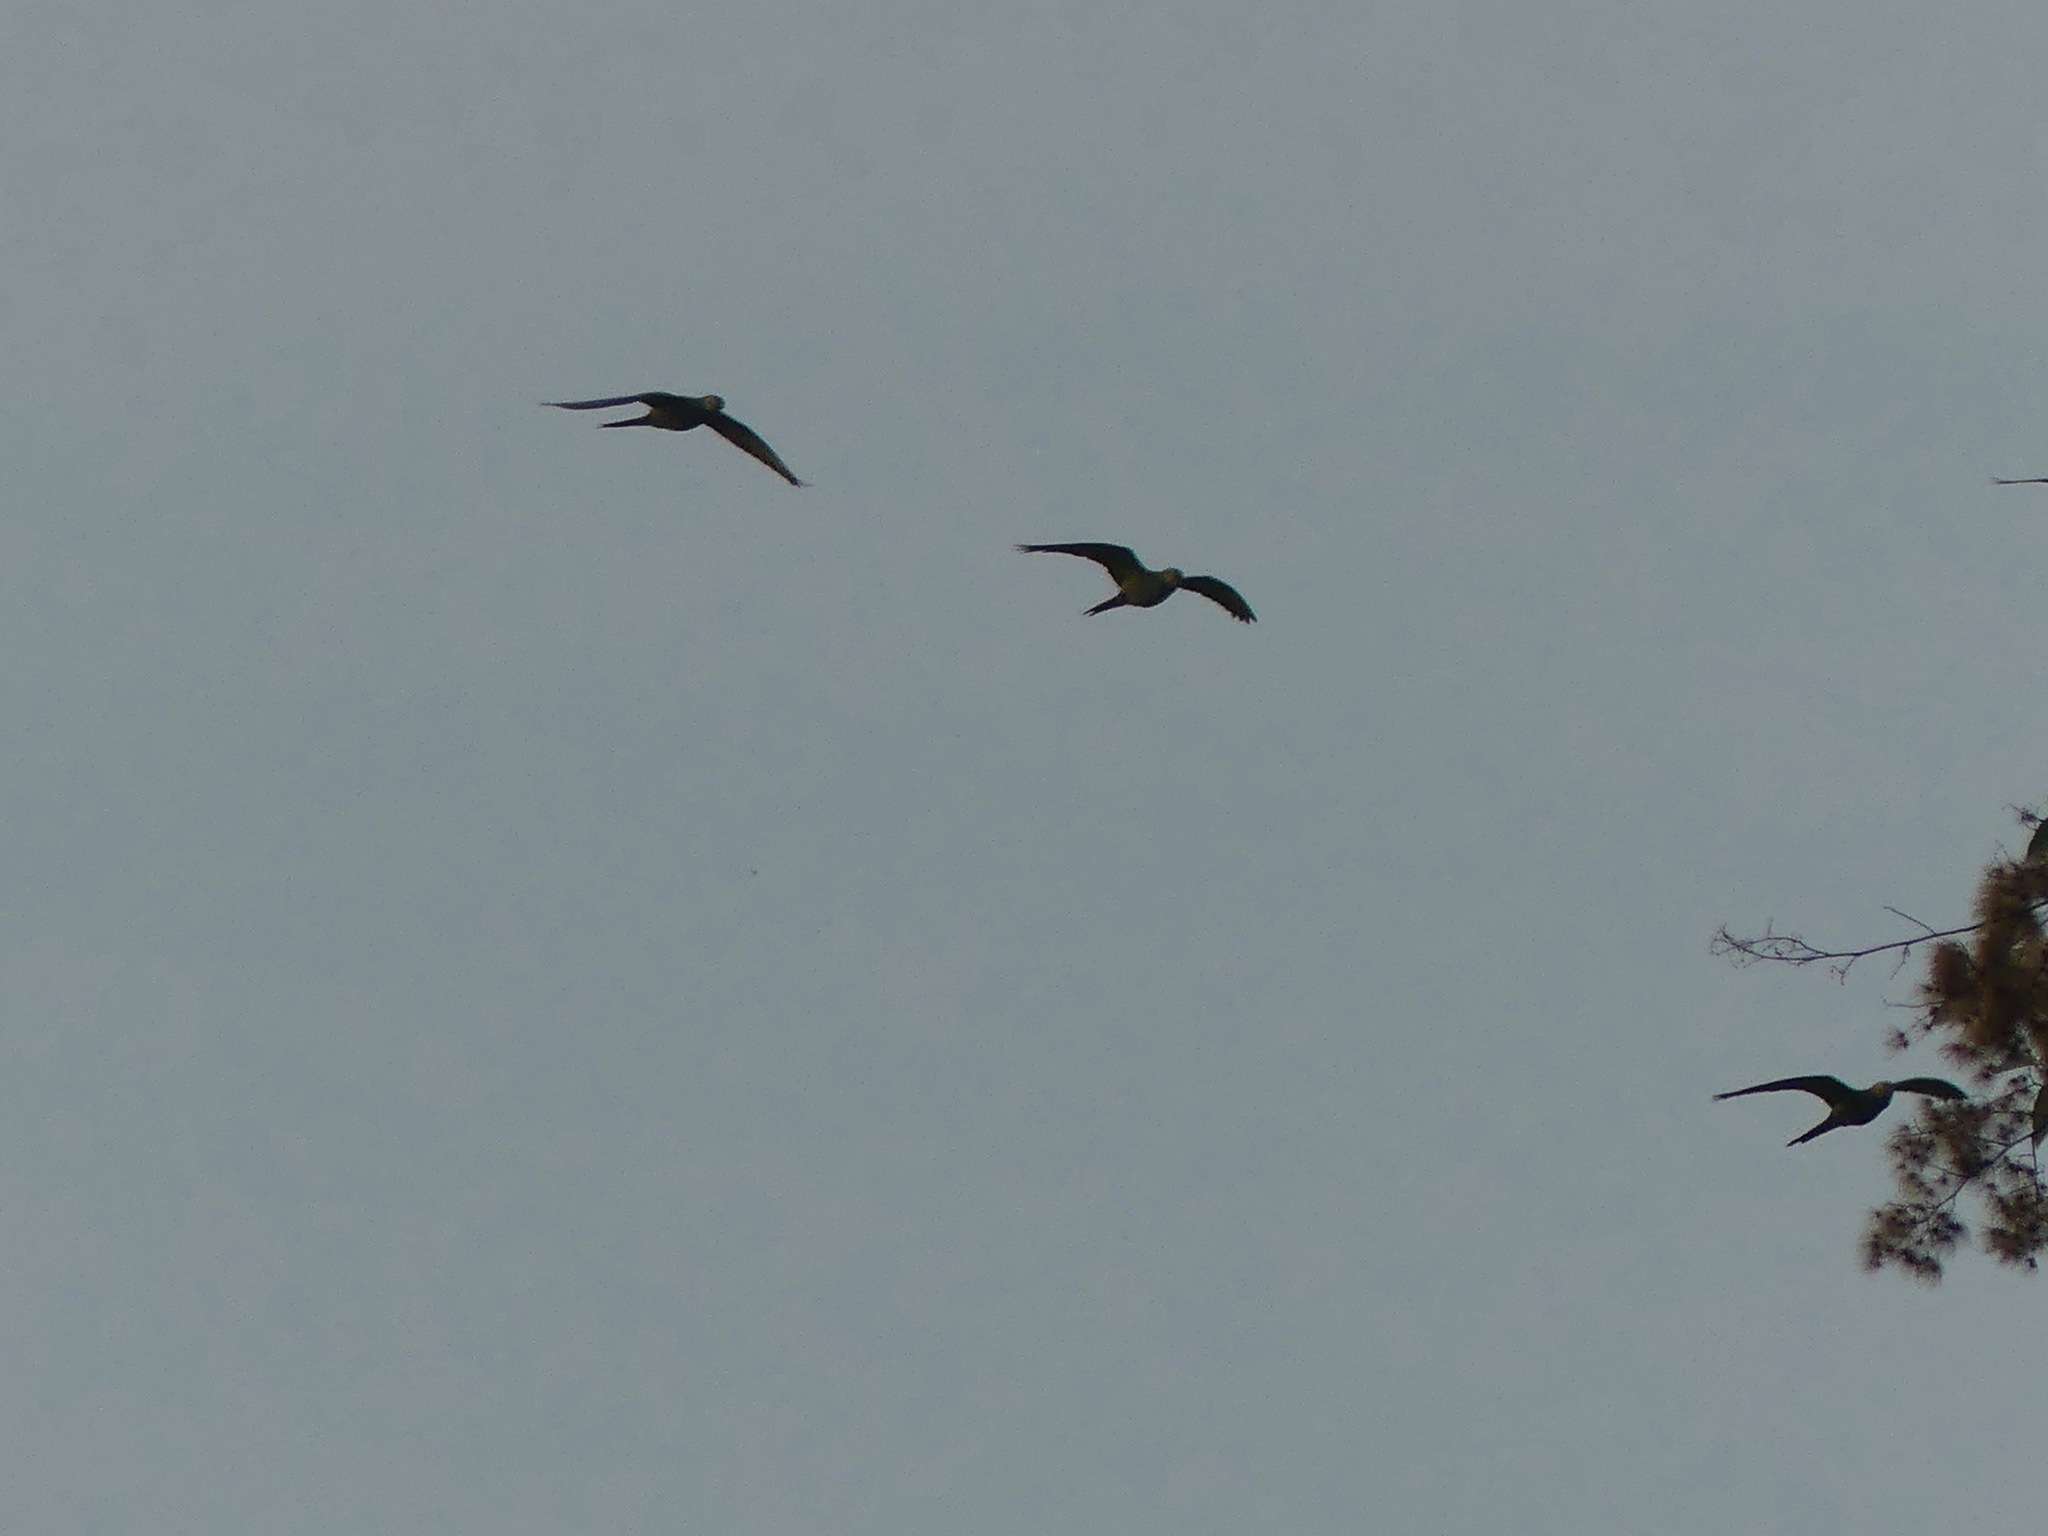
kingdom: Animalia
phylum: Chordata
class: Aves
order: Psittaciformes
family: Psittacidae
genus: Orthopsittaca
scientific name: Orthopsittaca manilata
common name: Red-bellied macaw
